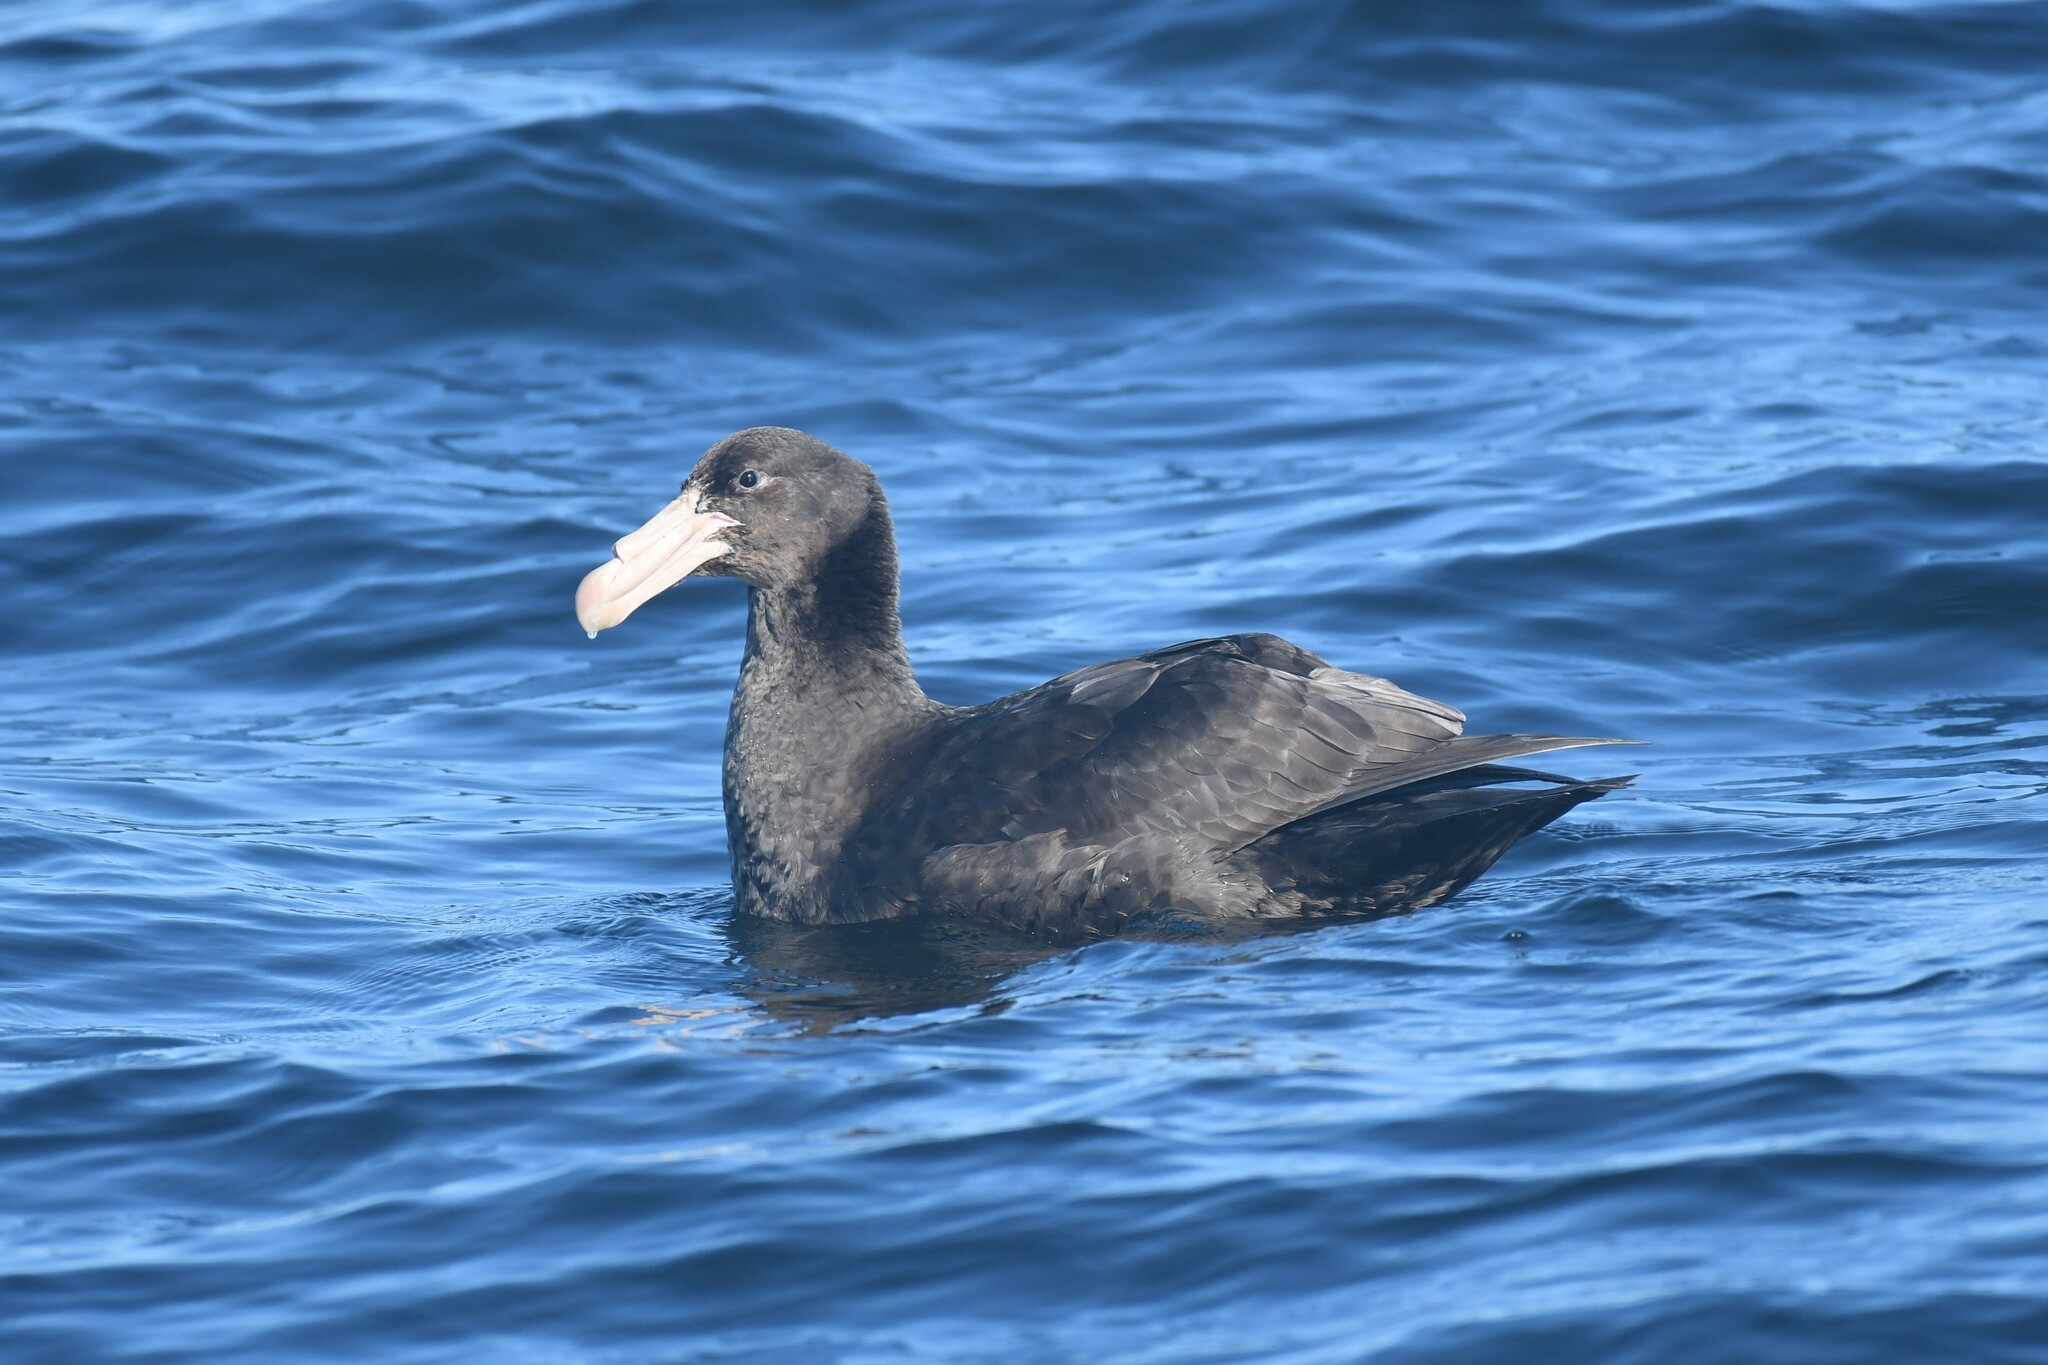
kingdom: Animalia
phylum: Chordata
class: Aves
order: Procellariiformes
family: Procellariidae
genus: Macronectes
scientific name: Macronectes halli
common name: Northern giant petrel
